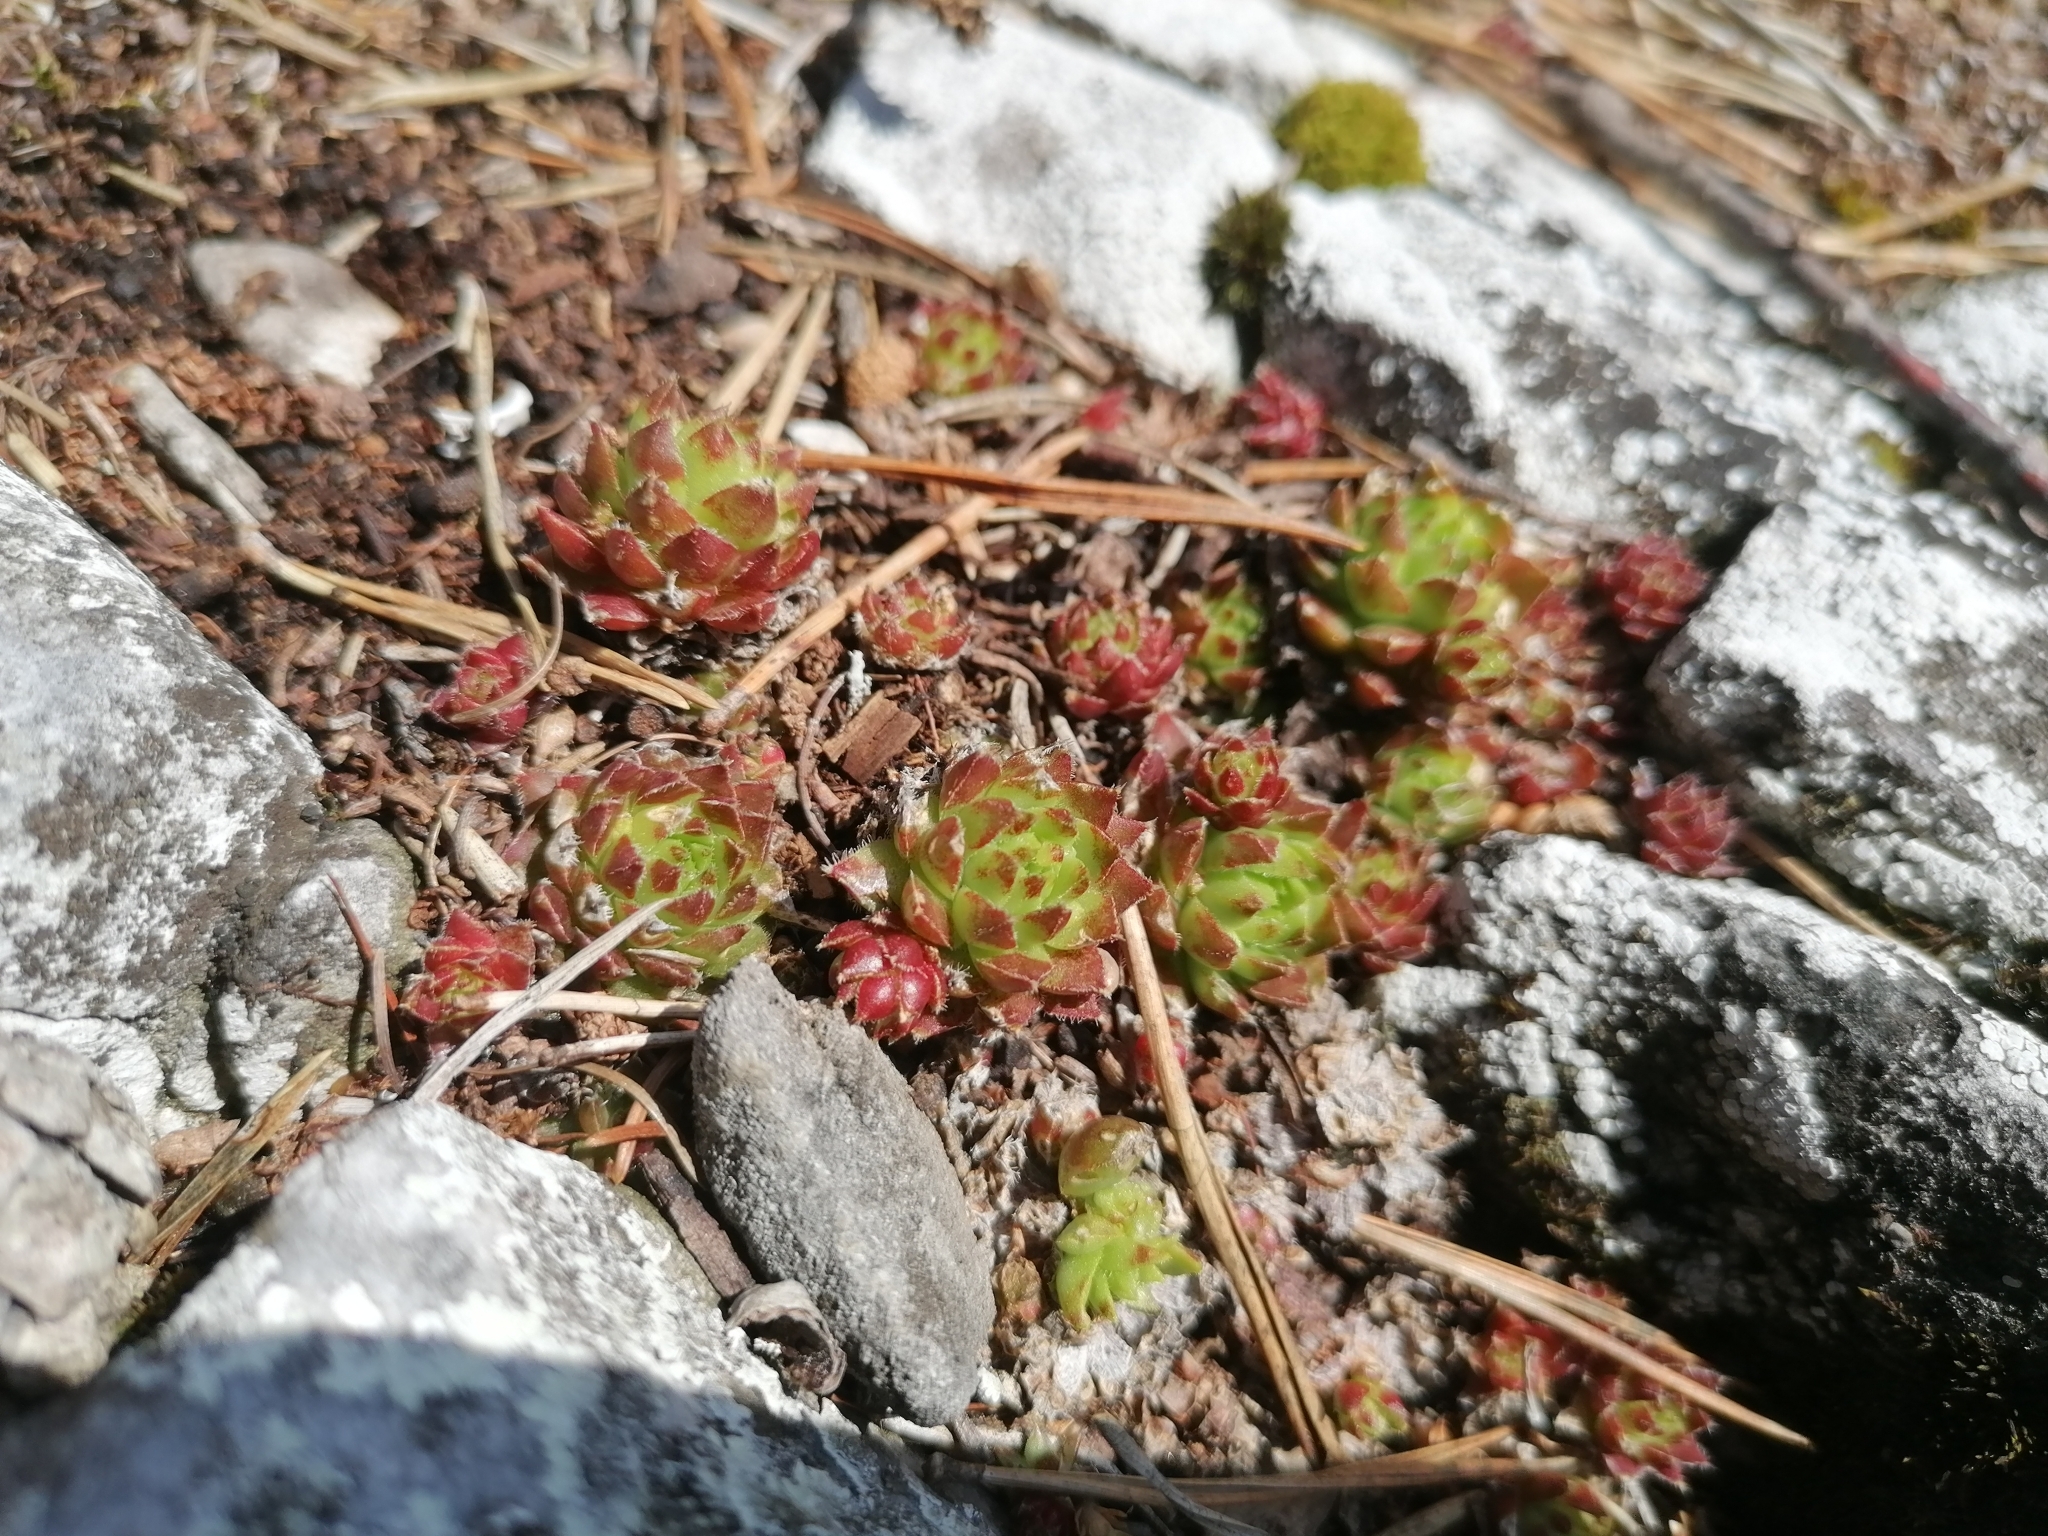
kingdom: Plantae
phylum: Tracheophyta
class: Magnoliopsida
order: Saxifragales
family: Crassulaceae
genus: Sempervivum
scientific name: Sempervivum globiferum
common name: Rolling hen-and-chicks
